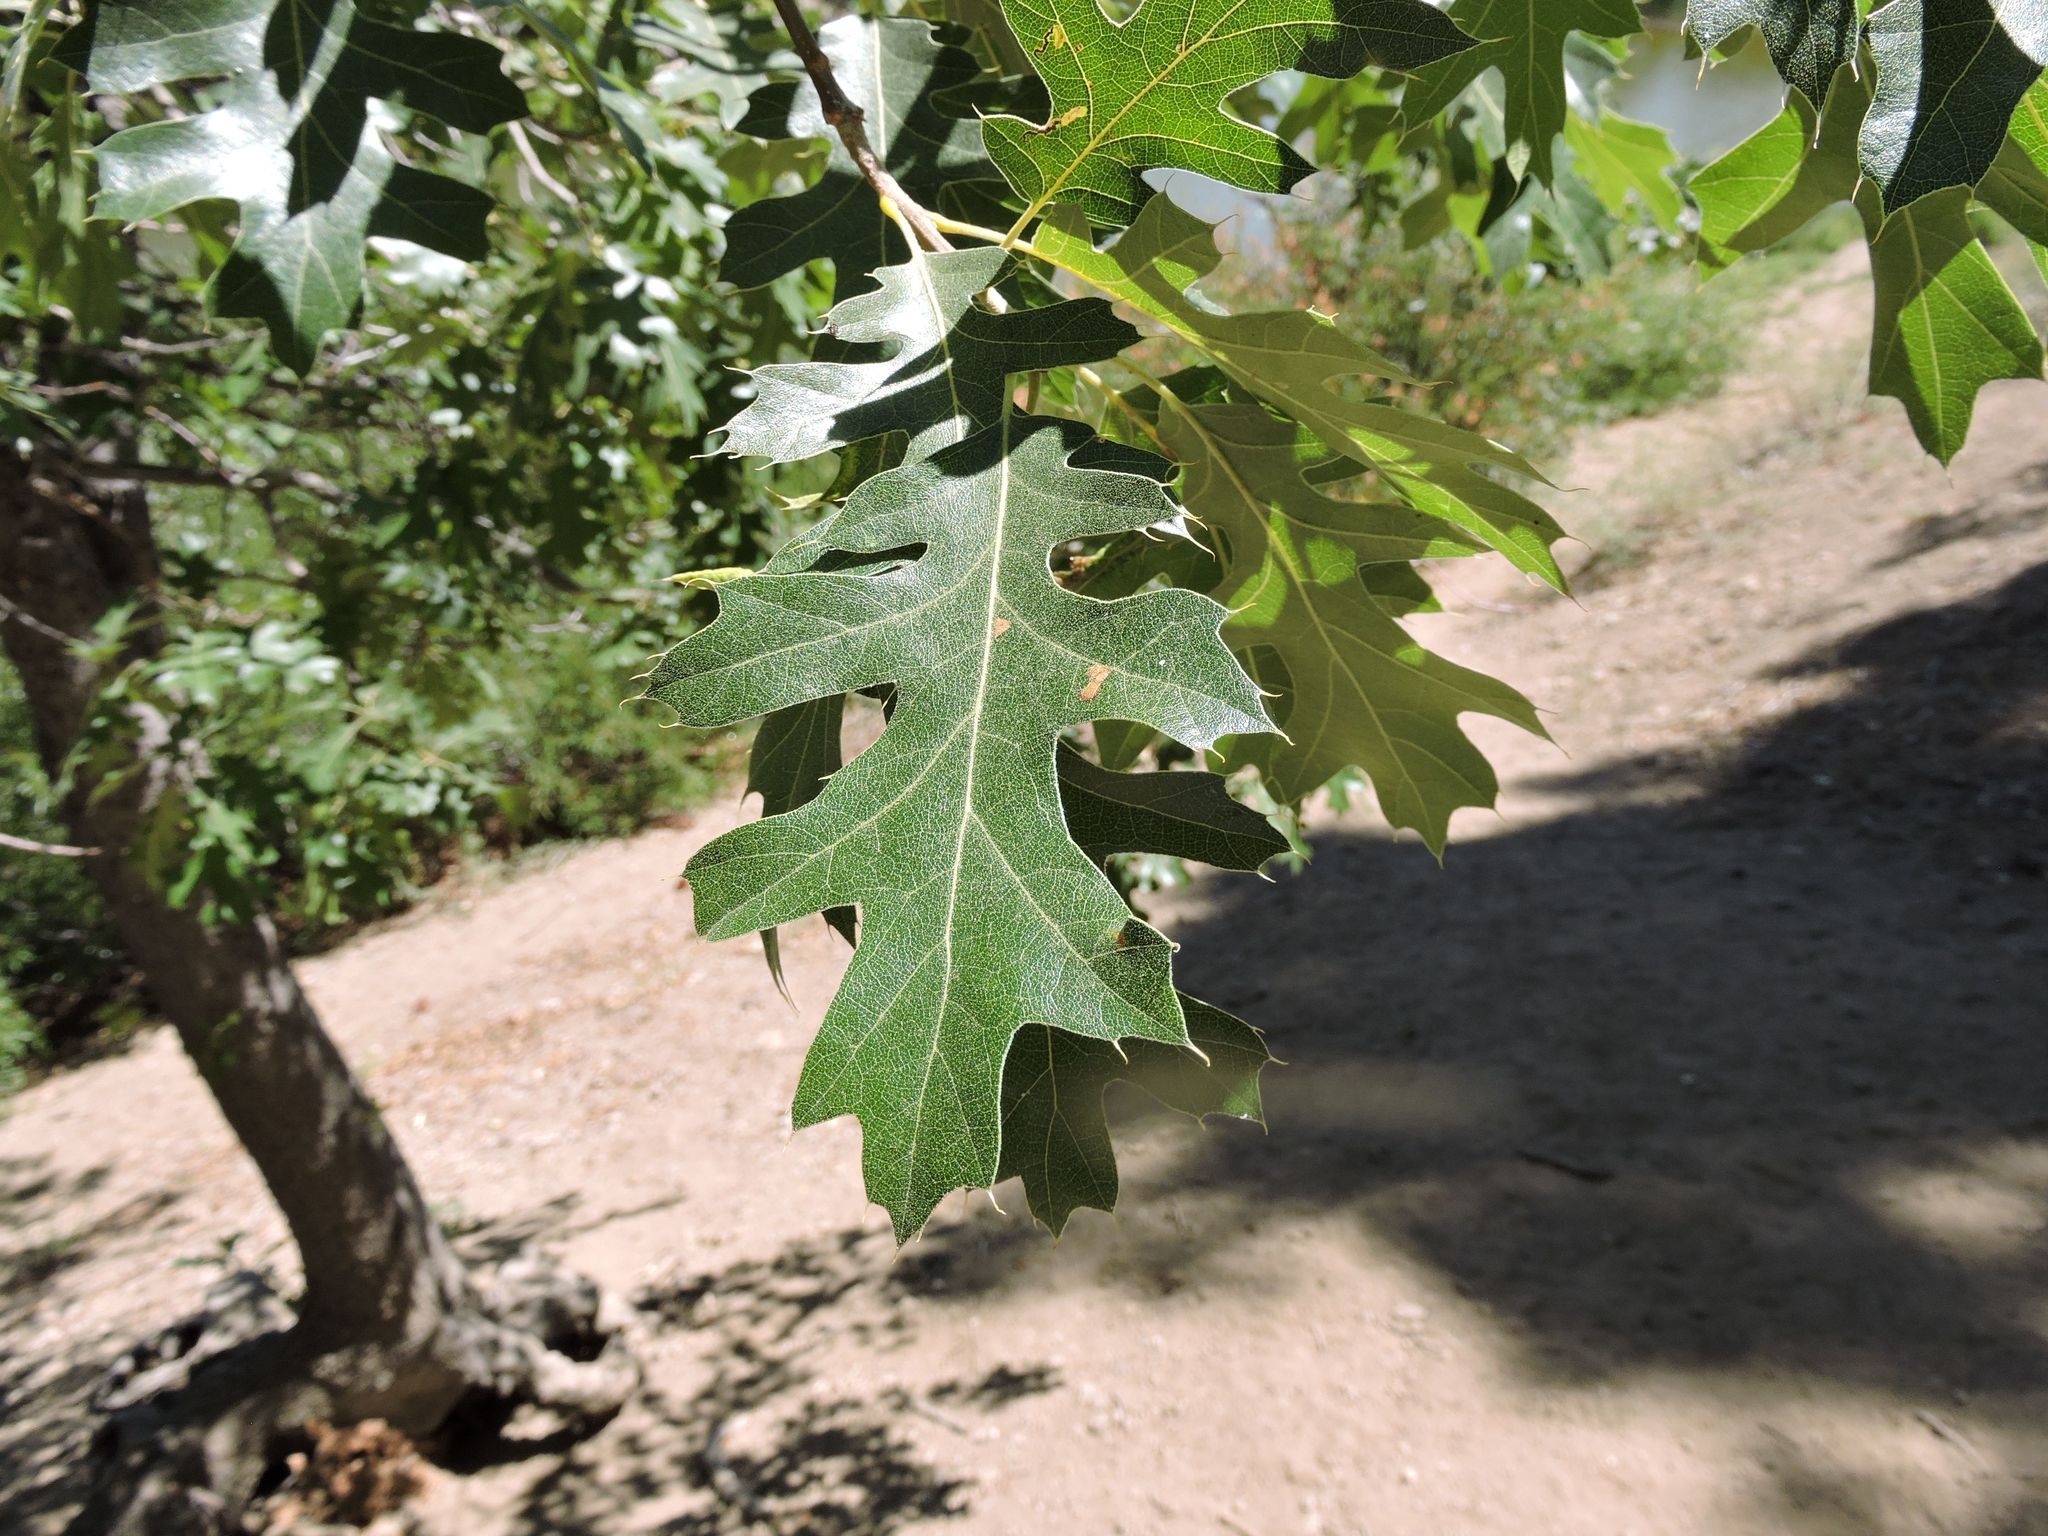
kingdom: Plantae
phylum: Tracheophyta
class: Magnoliopsida
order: Fagales
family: Fagaceae
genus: Quercus
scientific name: Quercus kelloggii
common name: California black oak
